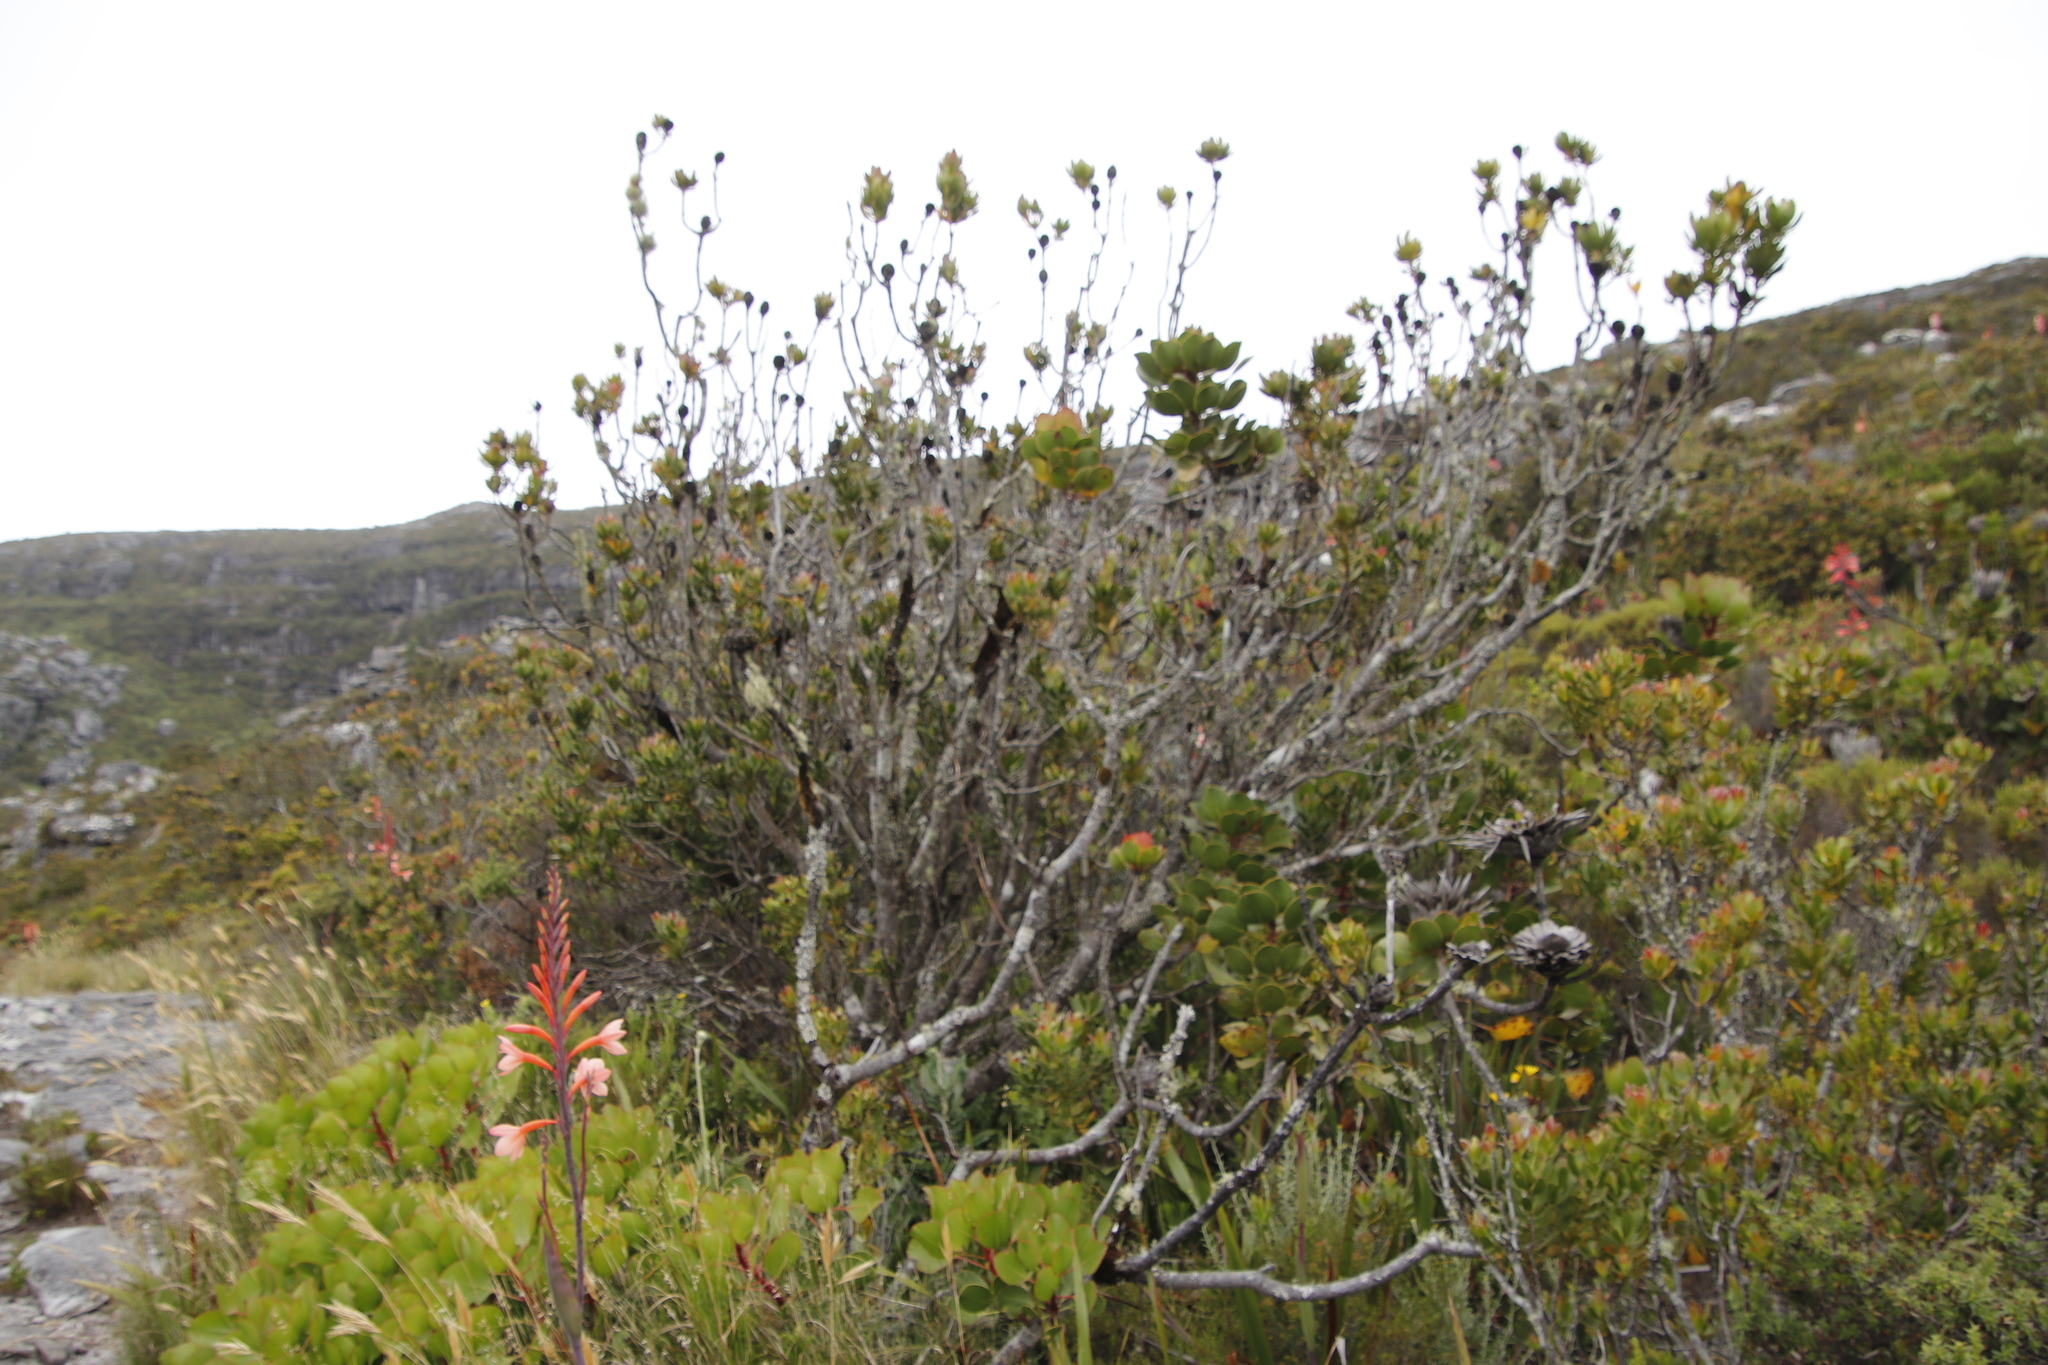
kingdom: Plantae
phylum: Tracheophyta
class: Magnoliopsida
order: Proteales
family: Proteaceae
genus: Leucadendron
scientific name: Leucadendron strobilinum
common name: Mountain rose
